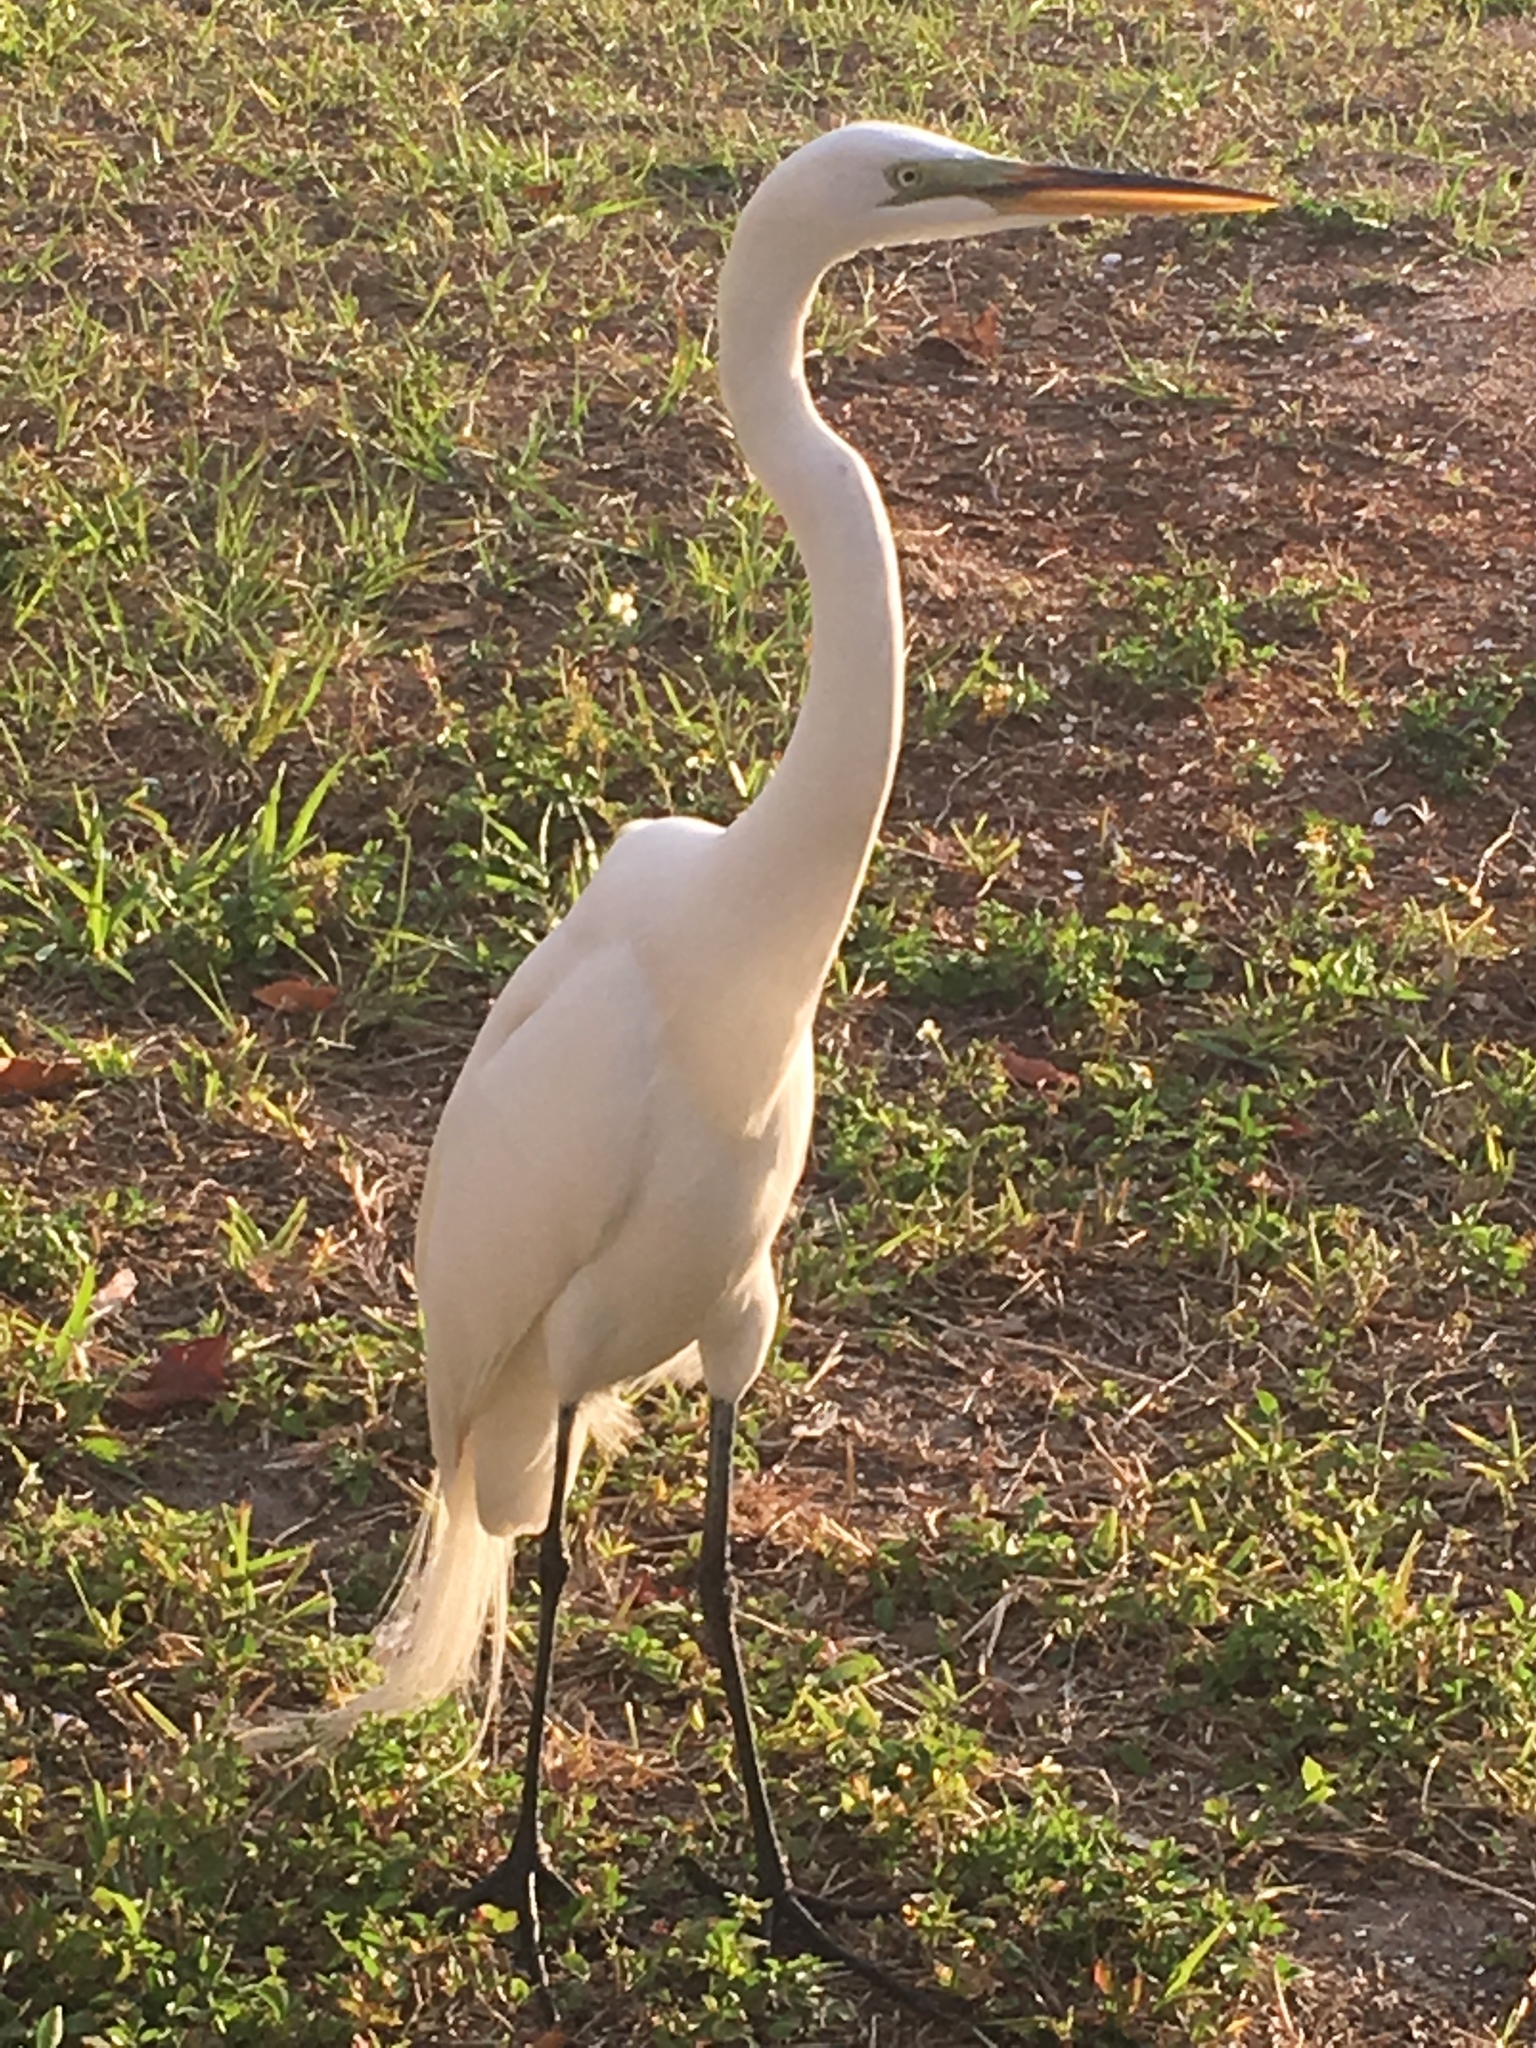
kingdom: Animalia
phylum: Chordata
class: Aves
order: Pelecaniformes
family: Ardeidae
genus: Ardea
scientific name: Ardea alba
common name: Great egret
